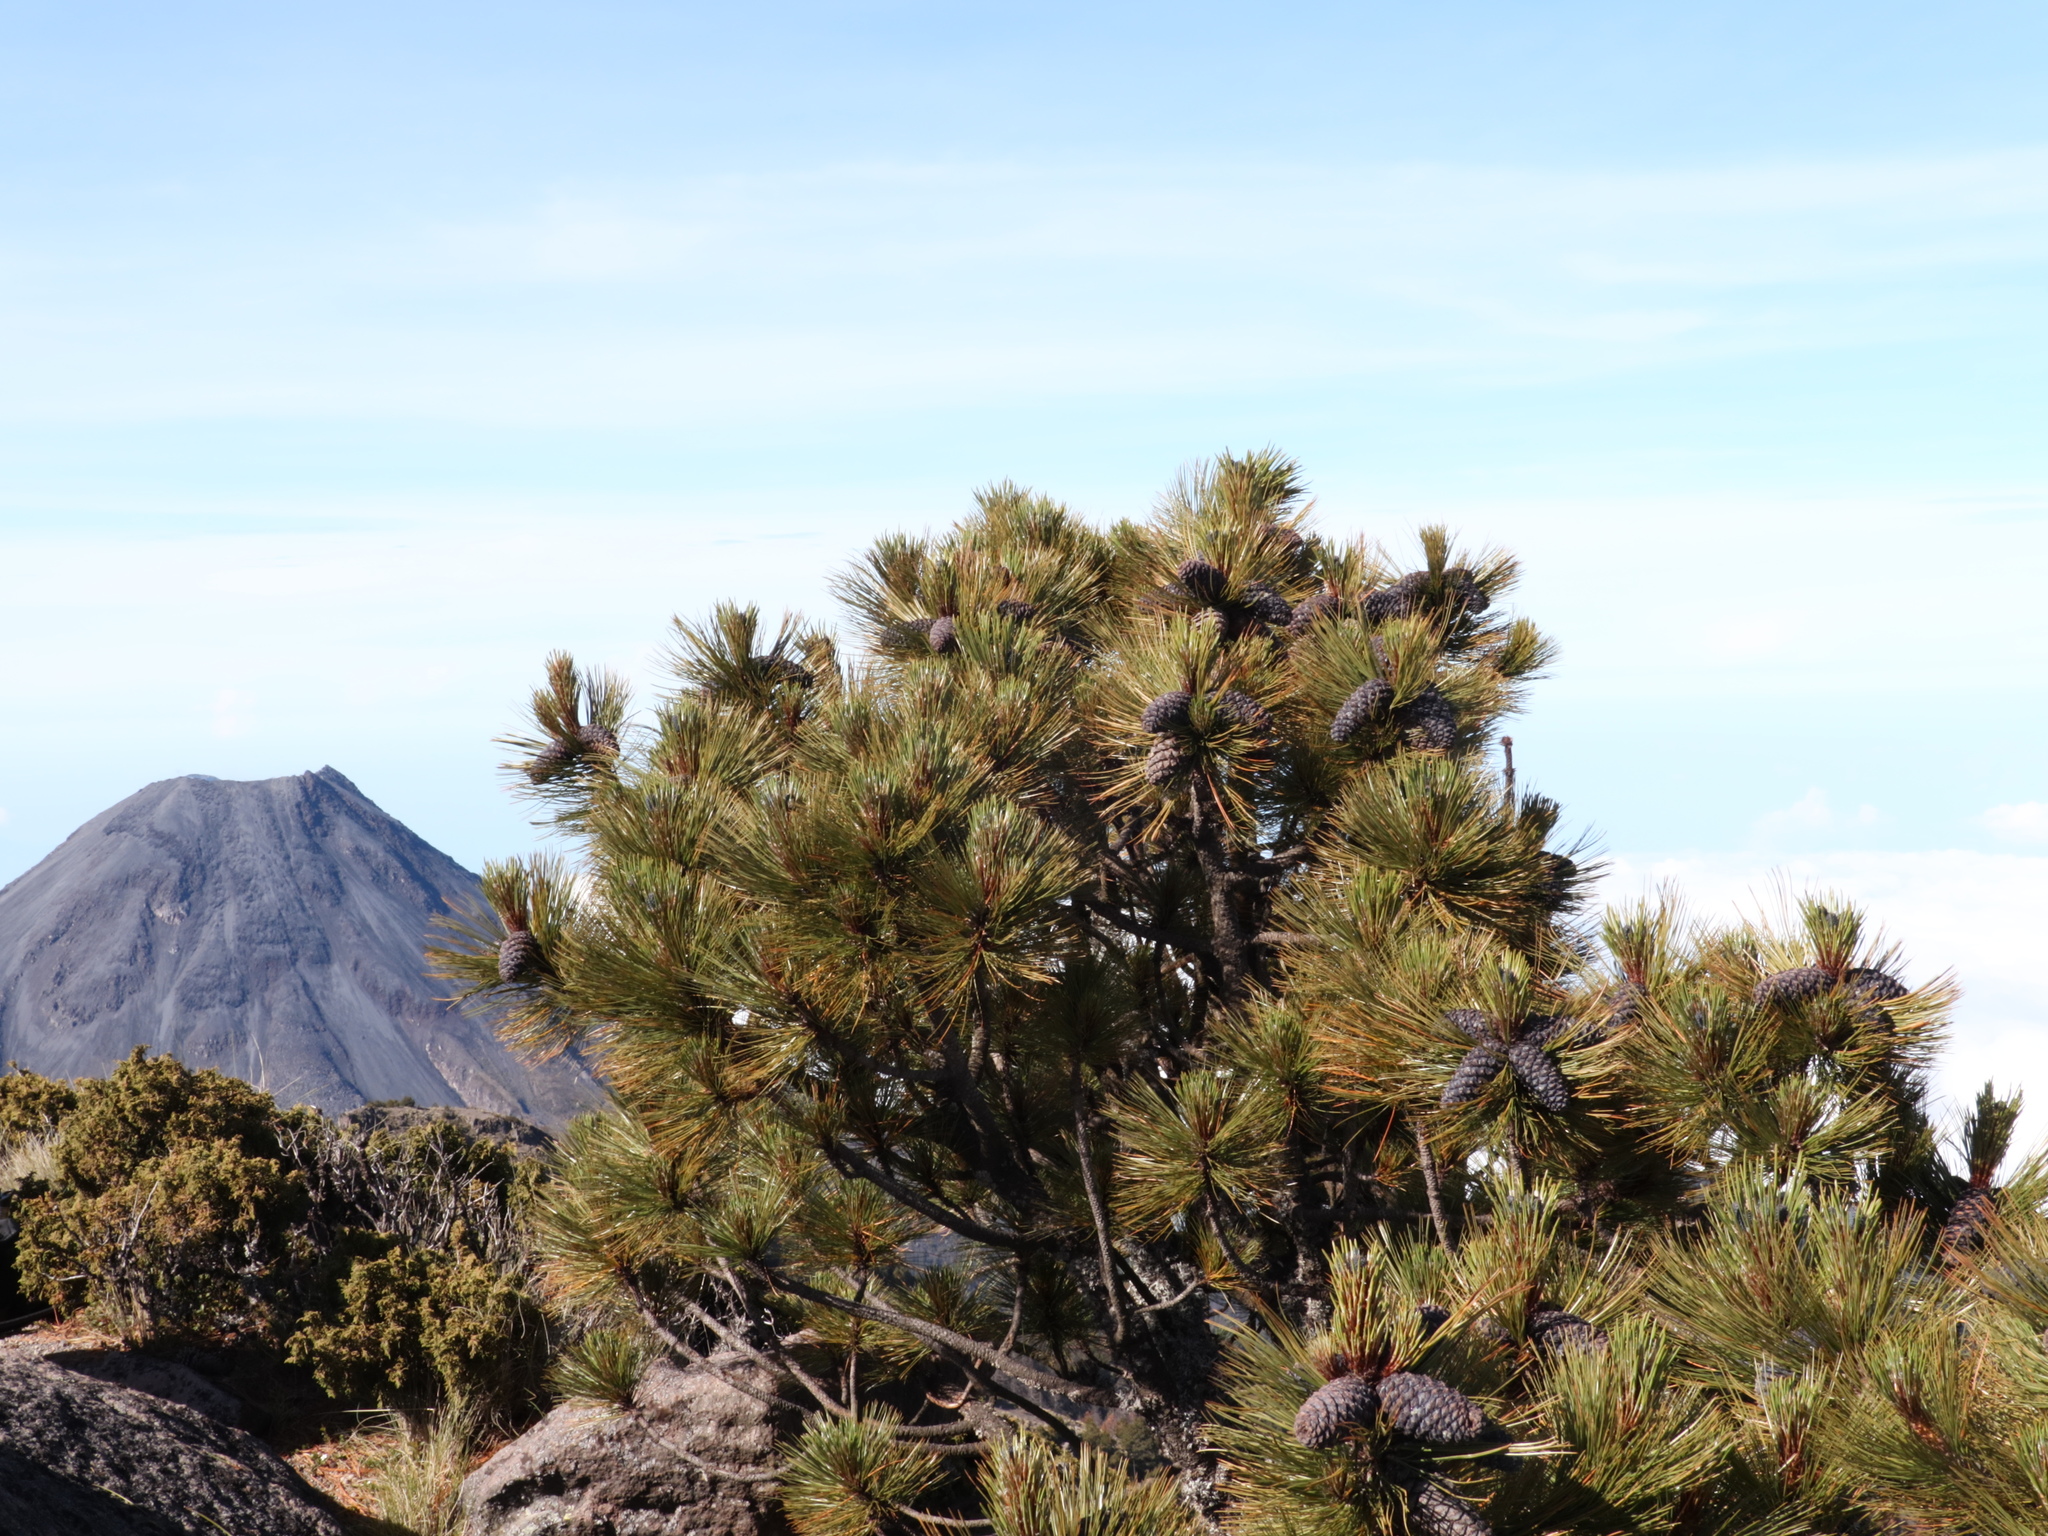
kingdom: Plantae
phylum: Tracheophyta
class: Pinopsida
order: Pinales
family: Pinaceae
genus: Pinus
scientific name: Pinus hartwegii
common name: Hartweg's pine
